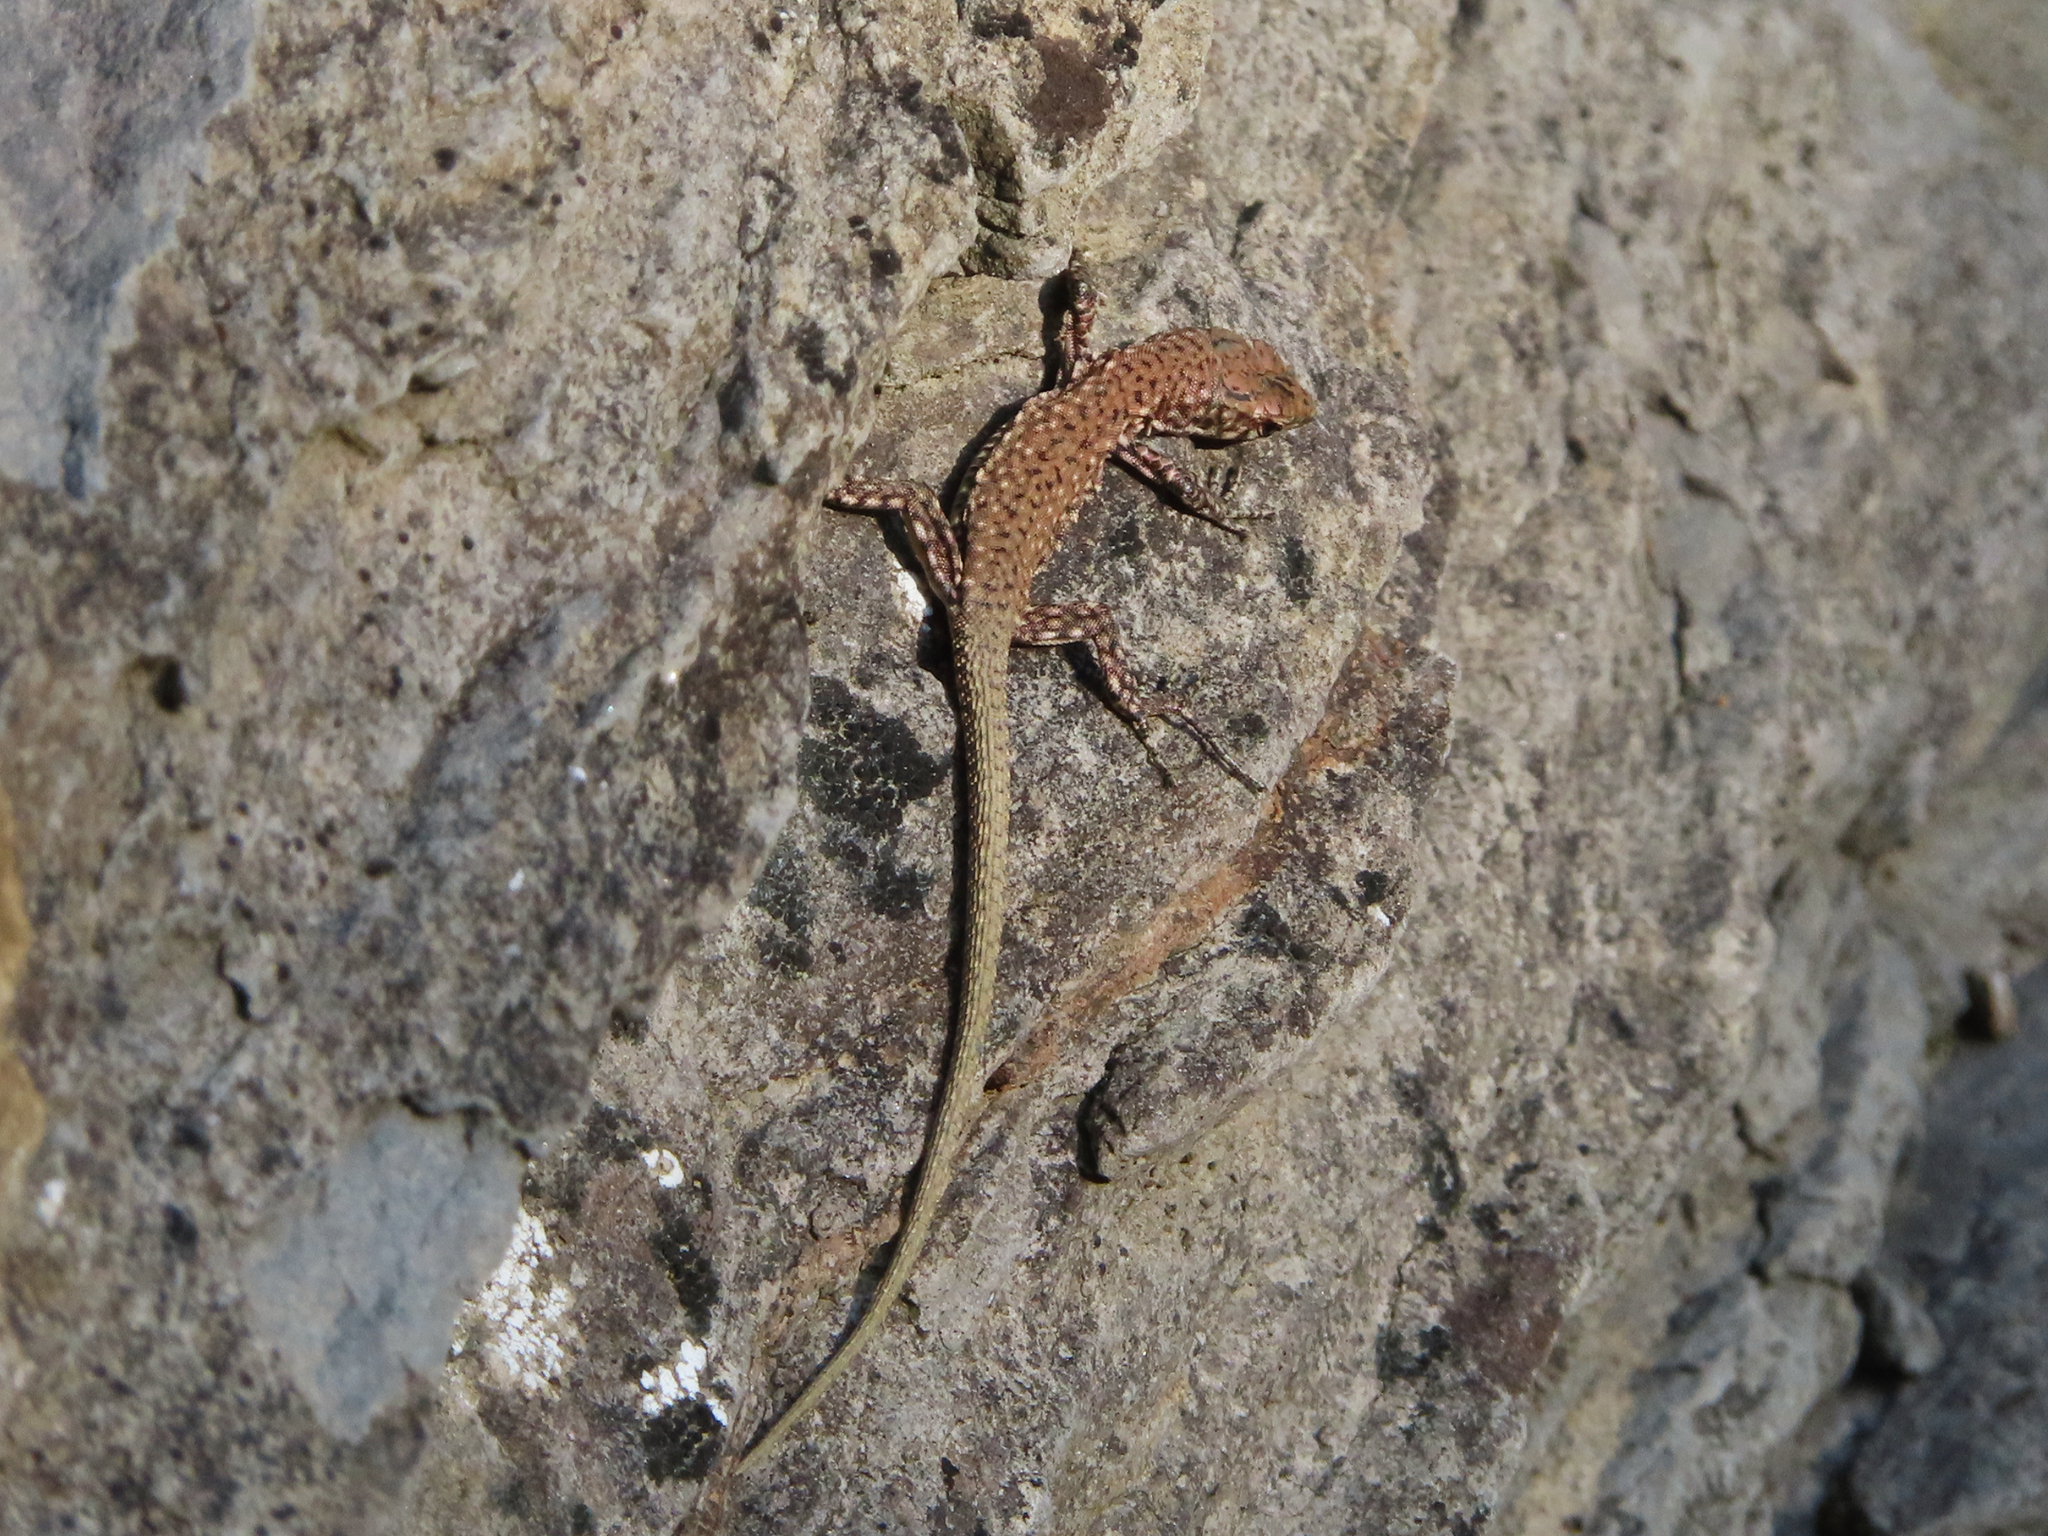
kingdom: Animalia
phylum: Chordata
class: Squamata
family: Lacertidae
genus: Darevskia
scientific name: Darevskia bithynica
